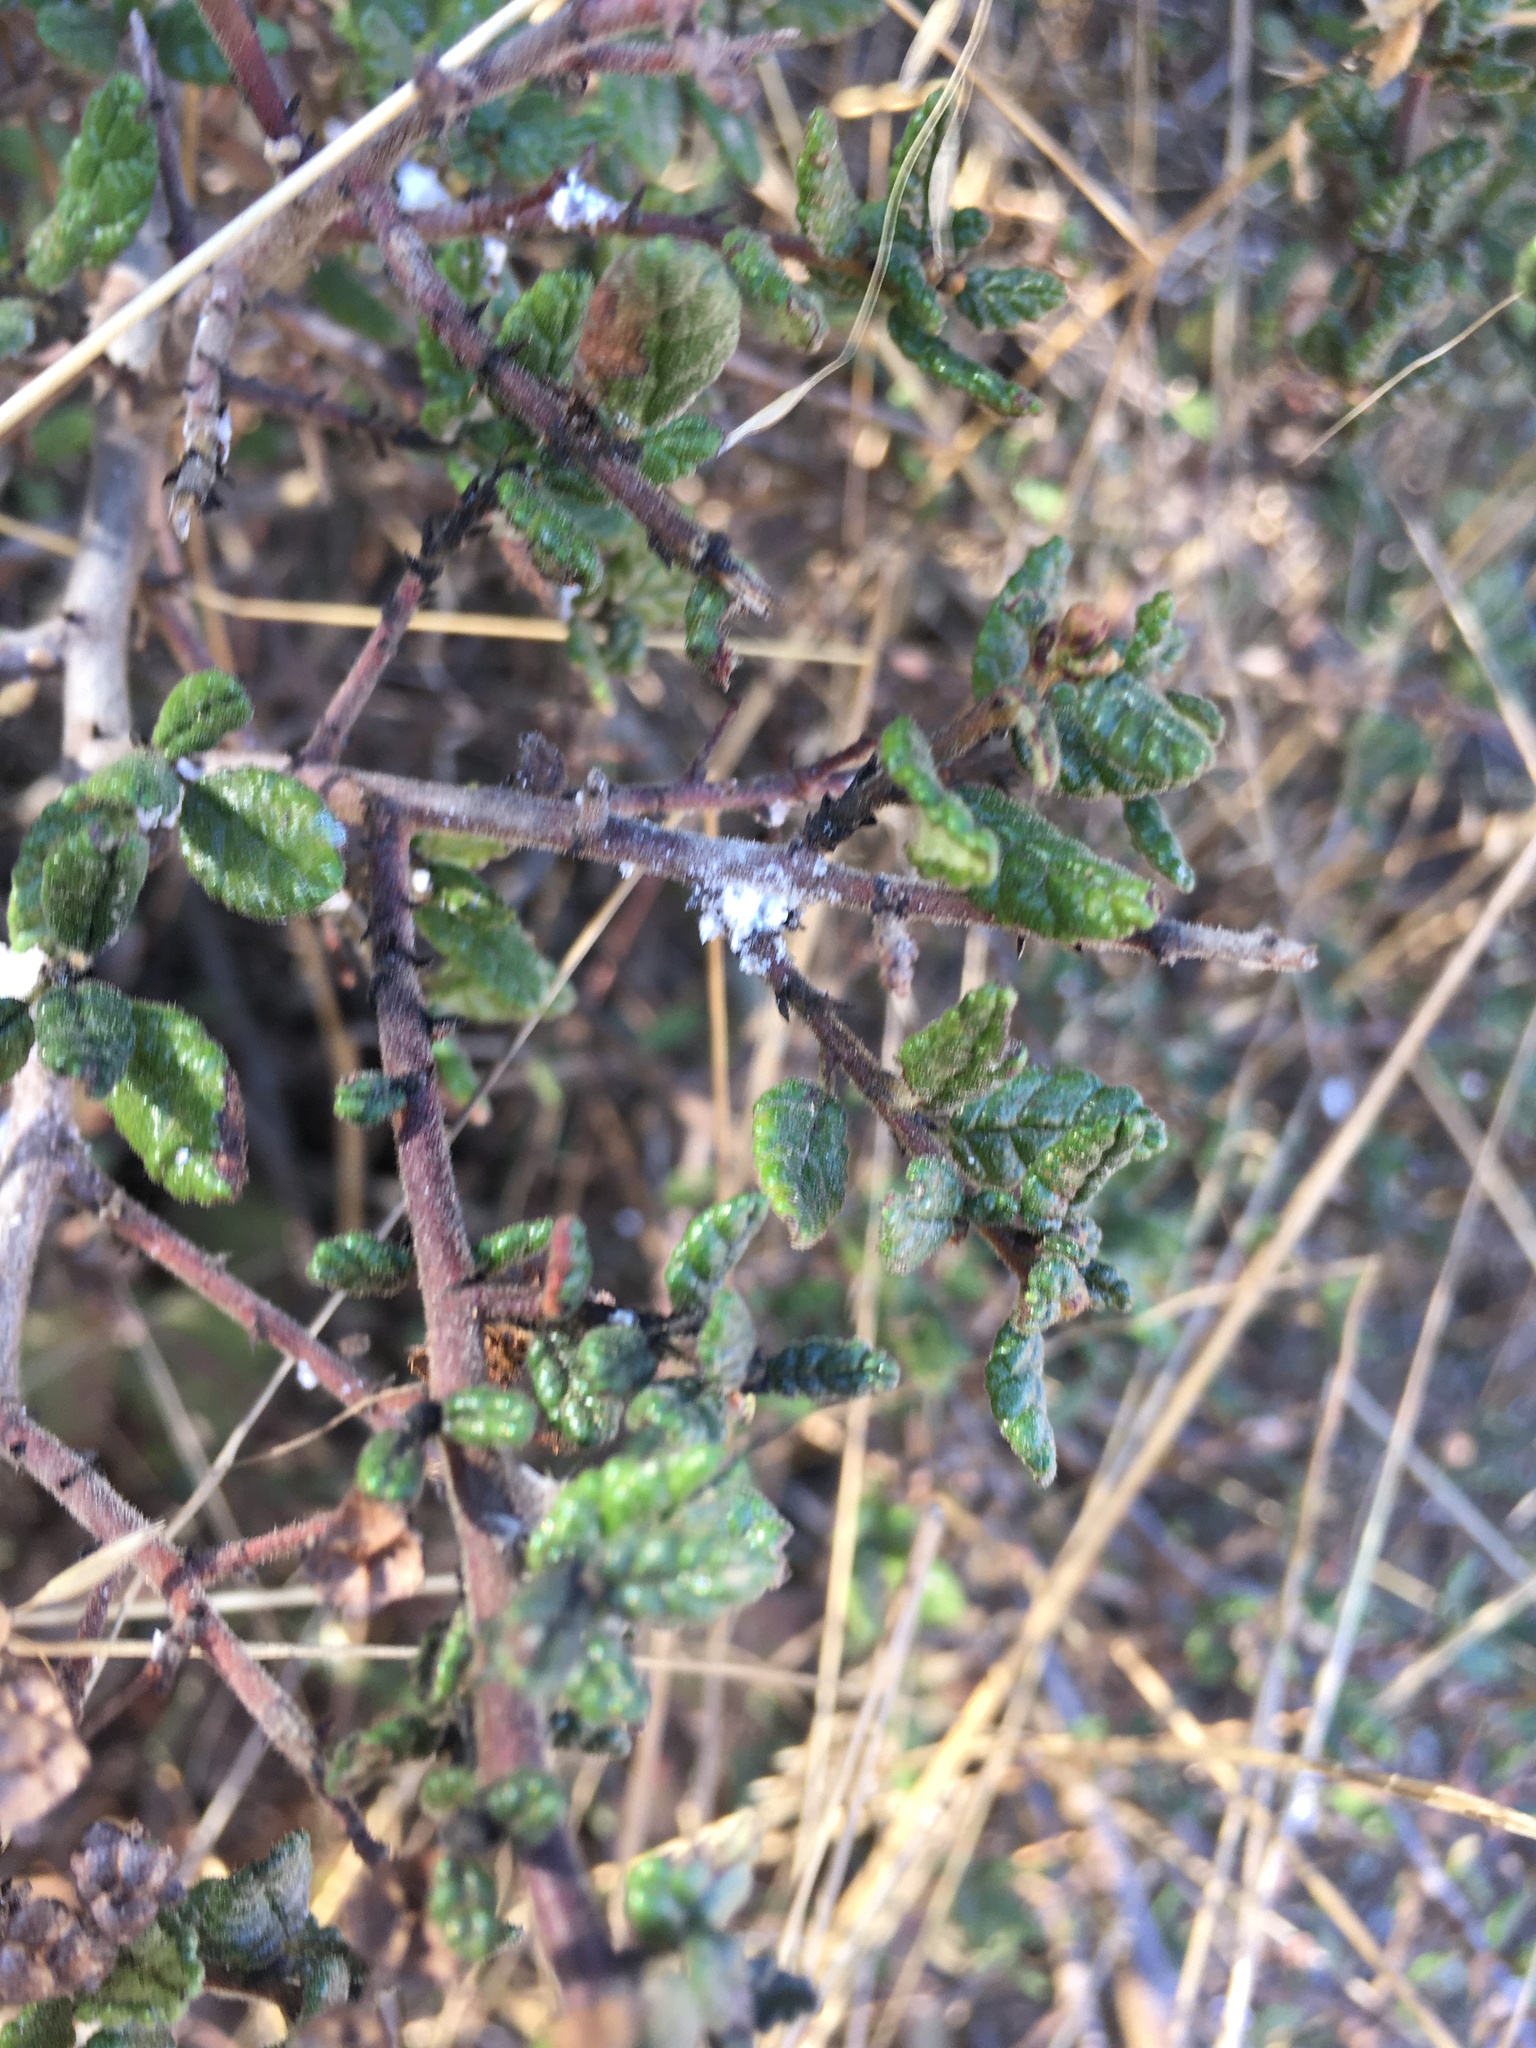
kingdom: Plantae
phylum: Tracheophyta
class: Magnoliopsida
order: Rosales
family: Rhamnaceae
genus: Ceanothus
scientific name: Ceanothus impressus
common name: Santa barbara ceanothus
